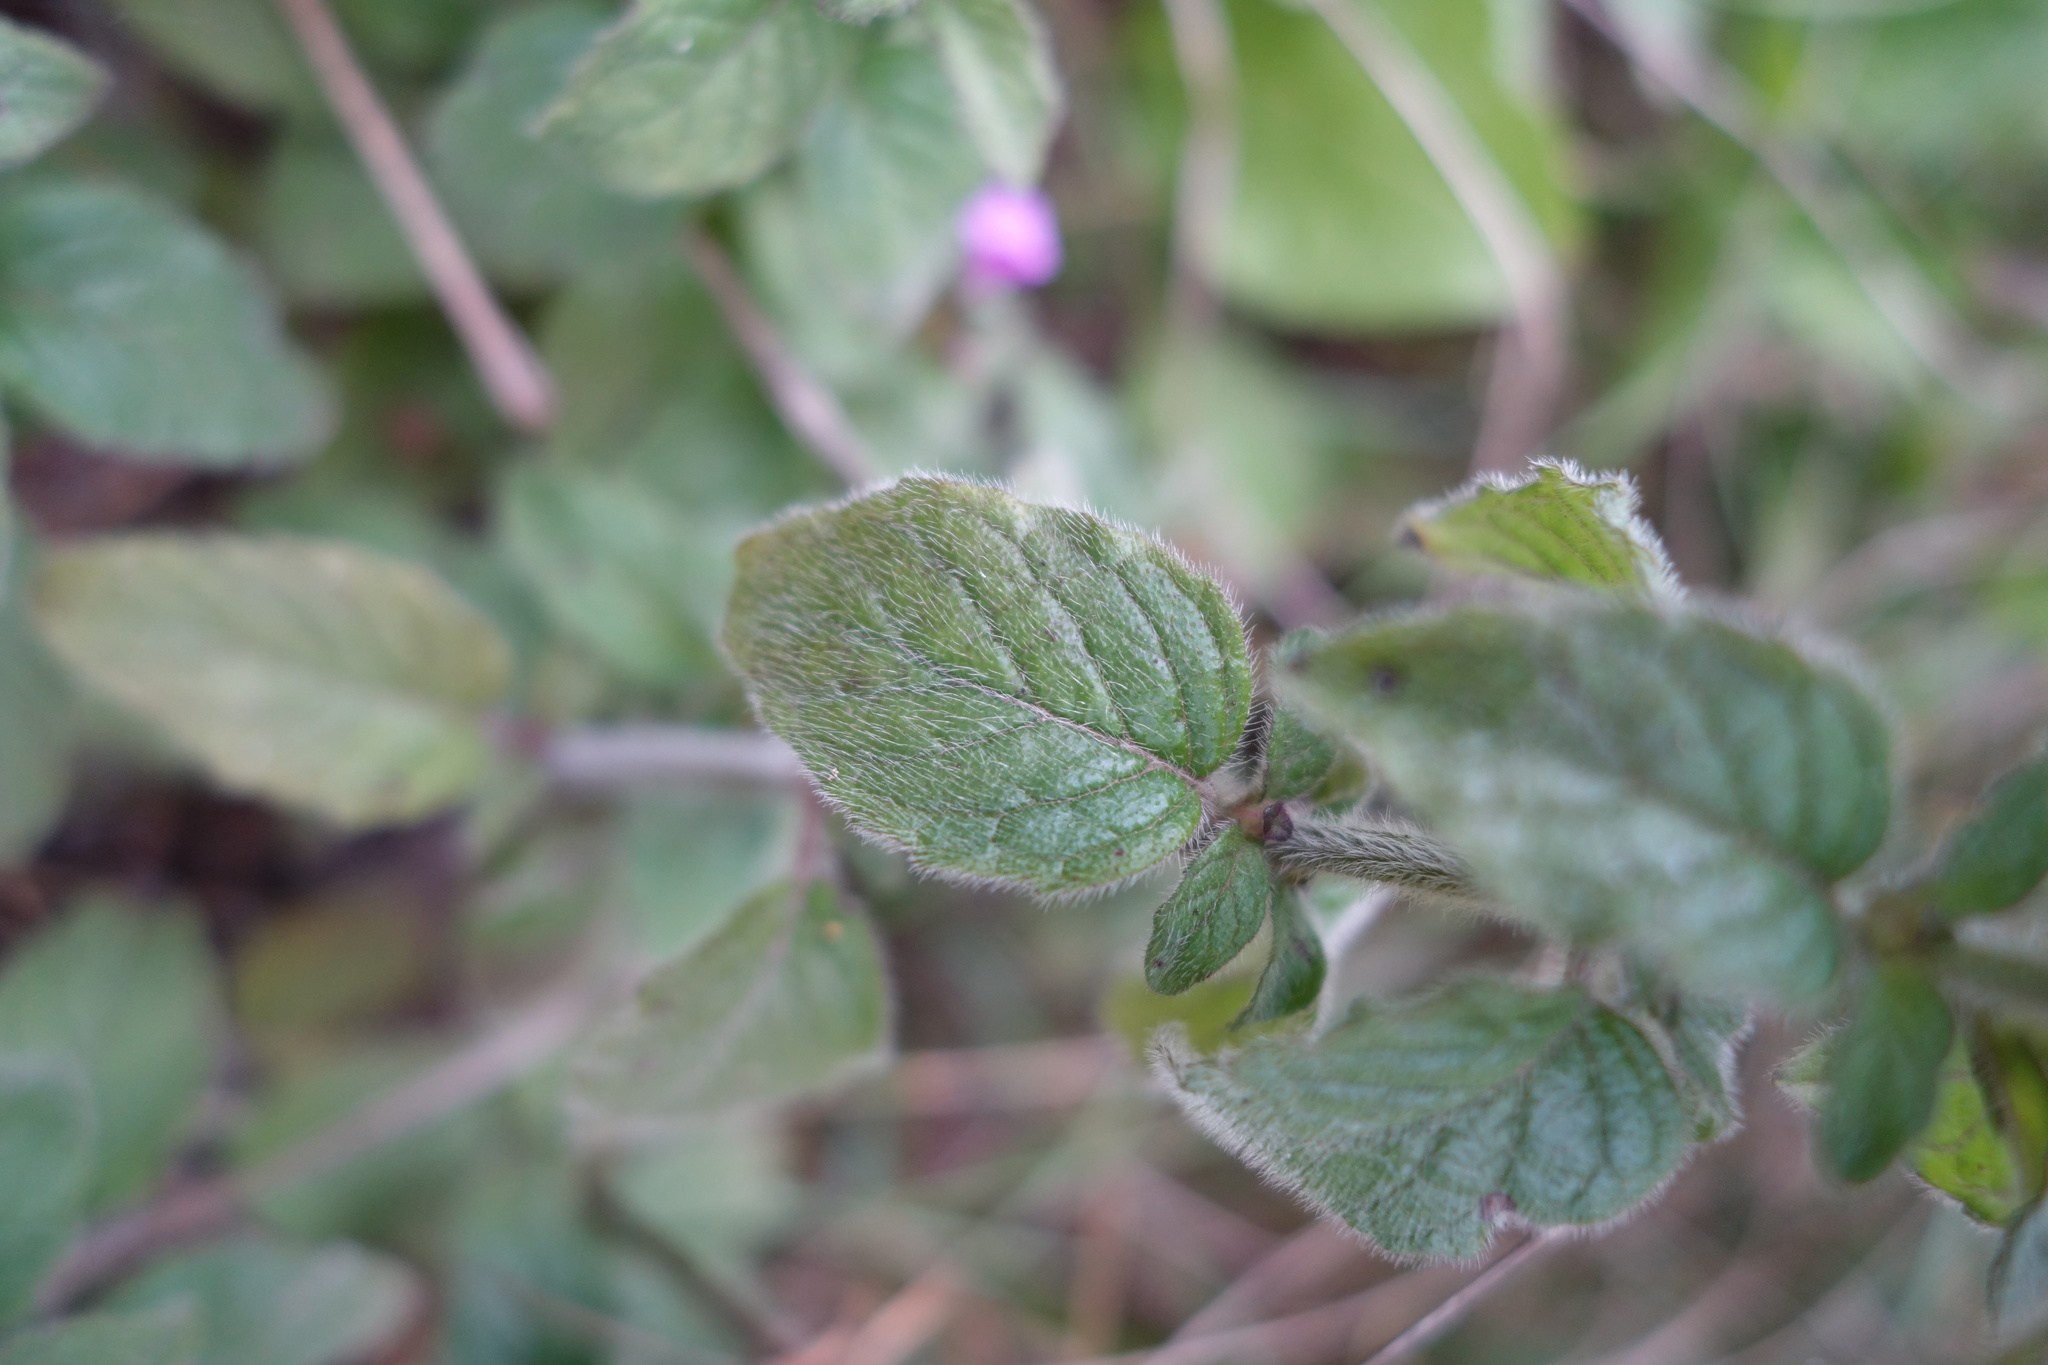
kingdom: Plantae
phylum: Tracheophyta
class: Magnoliopsida
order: Lamiales
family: Lamiaceae
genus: Clinopodium
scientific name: Clinopodium vulgare
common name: Wild basil
